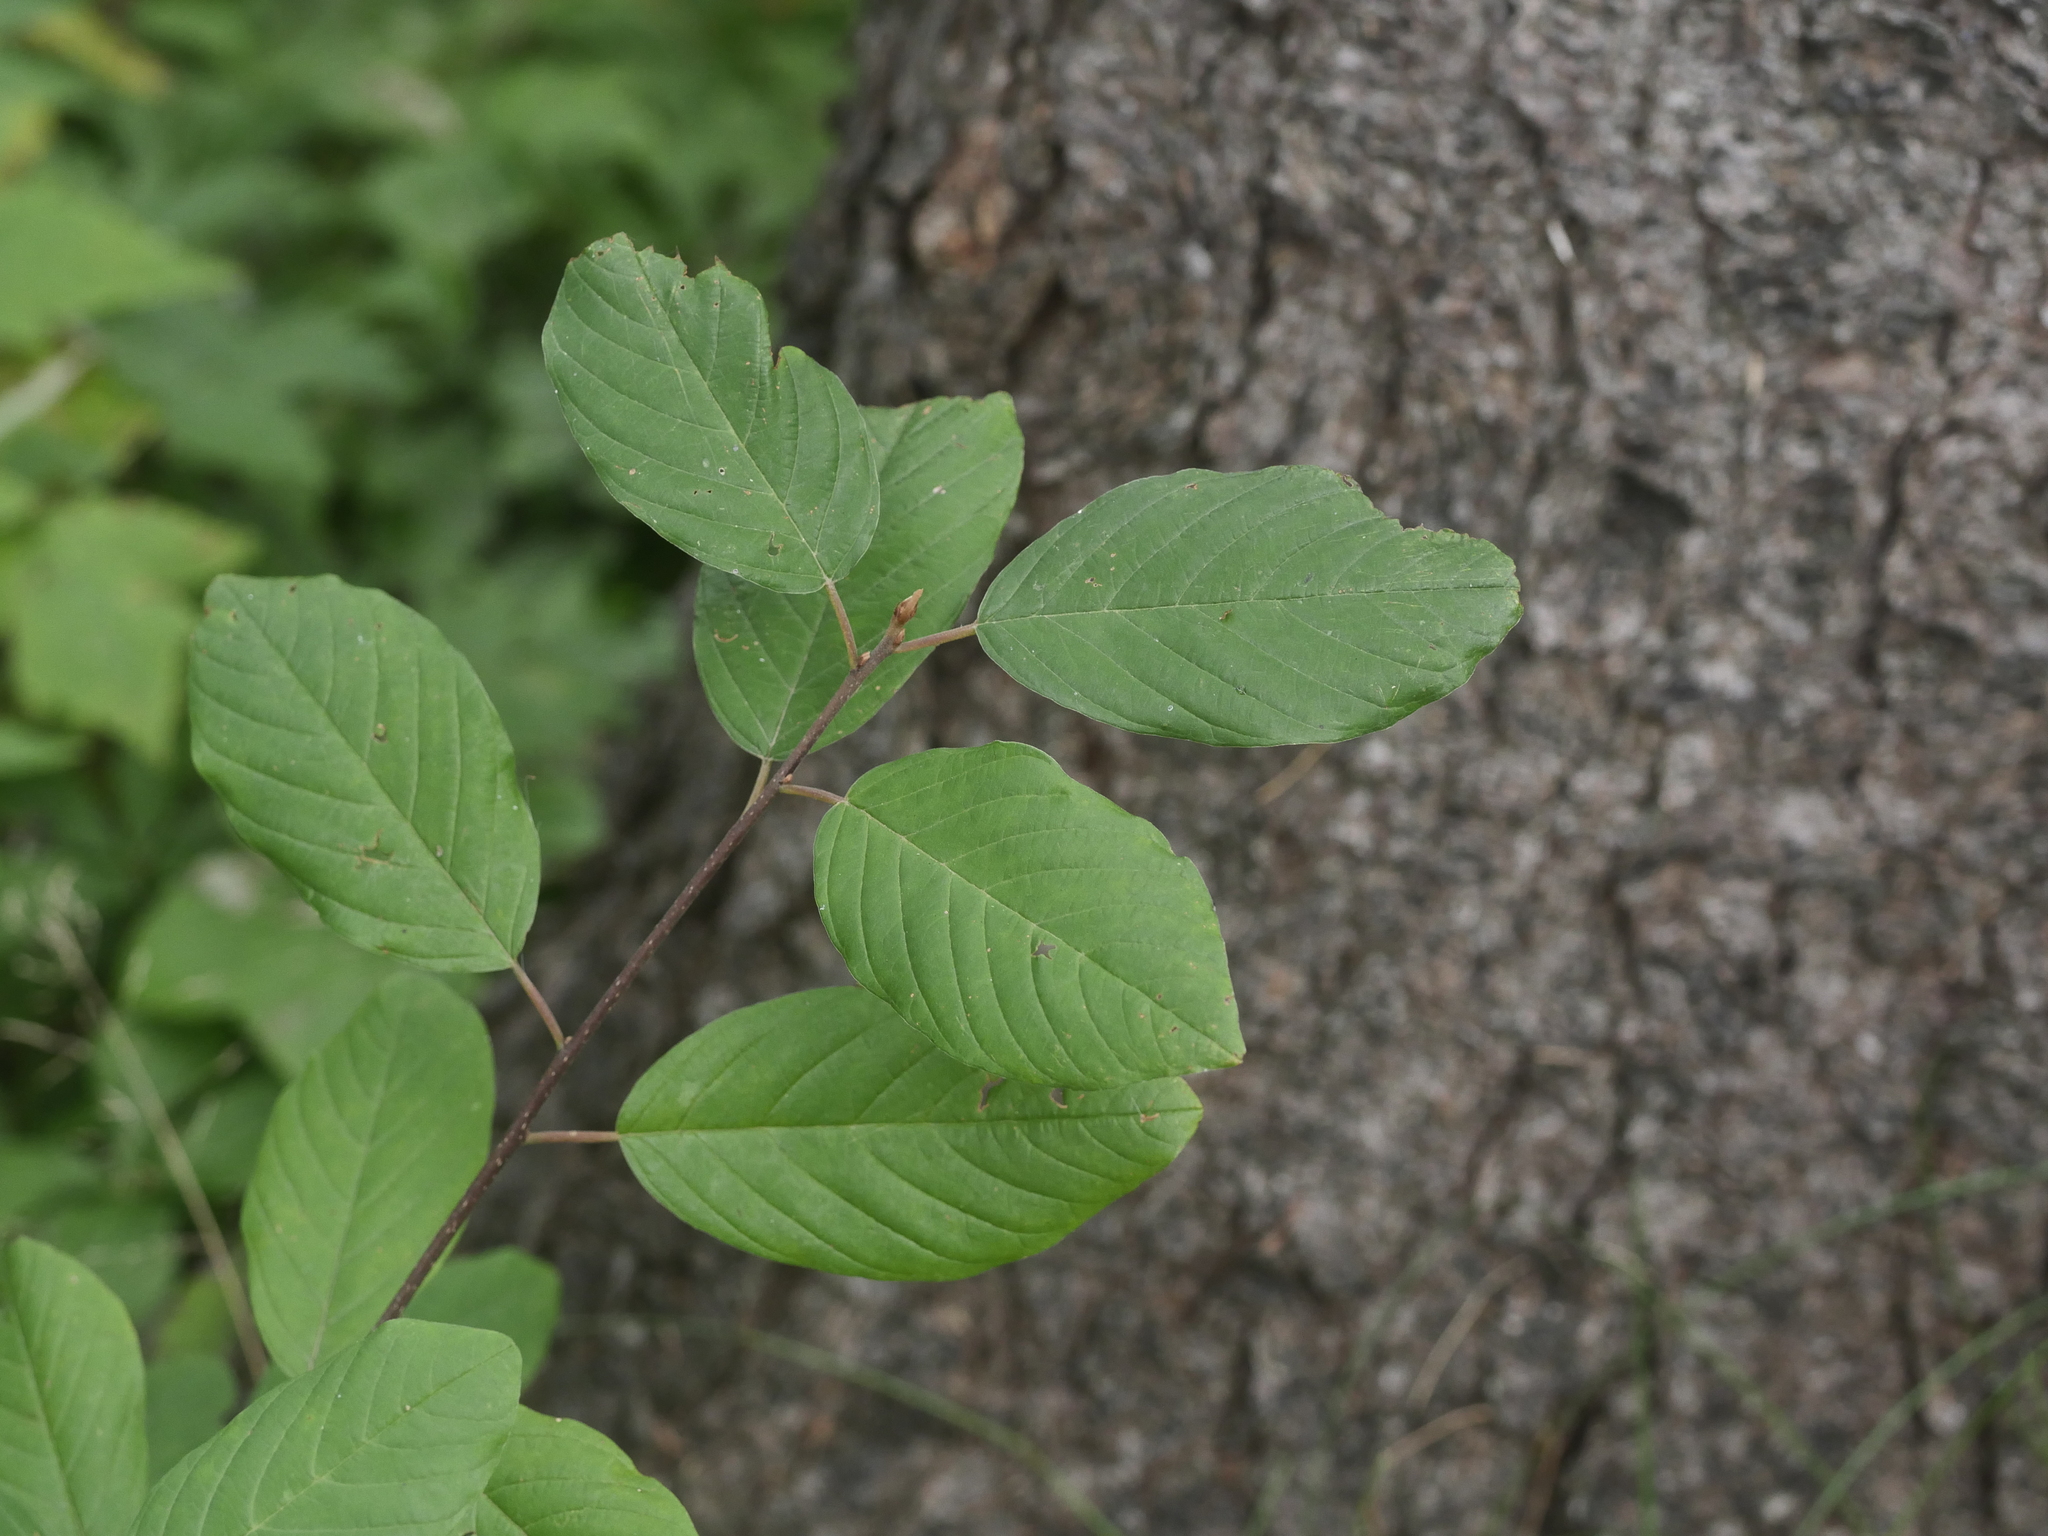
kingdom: Plantae
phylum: Tracheophyta
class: Magnoliopsida
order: Rosales
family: Rhamnaceae
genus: Frangula
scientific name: Frangula alnus
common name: Alder buckthorn
